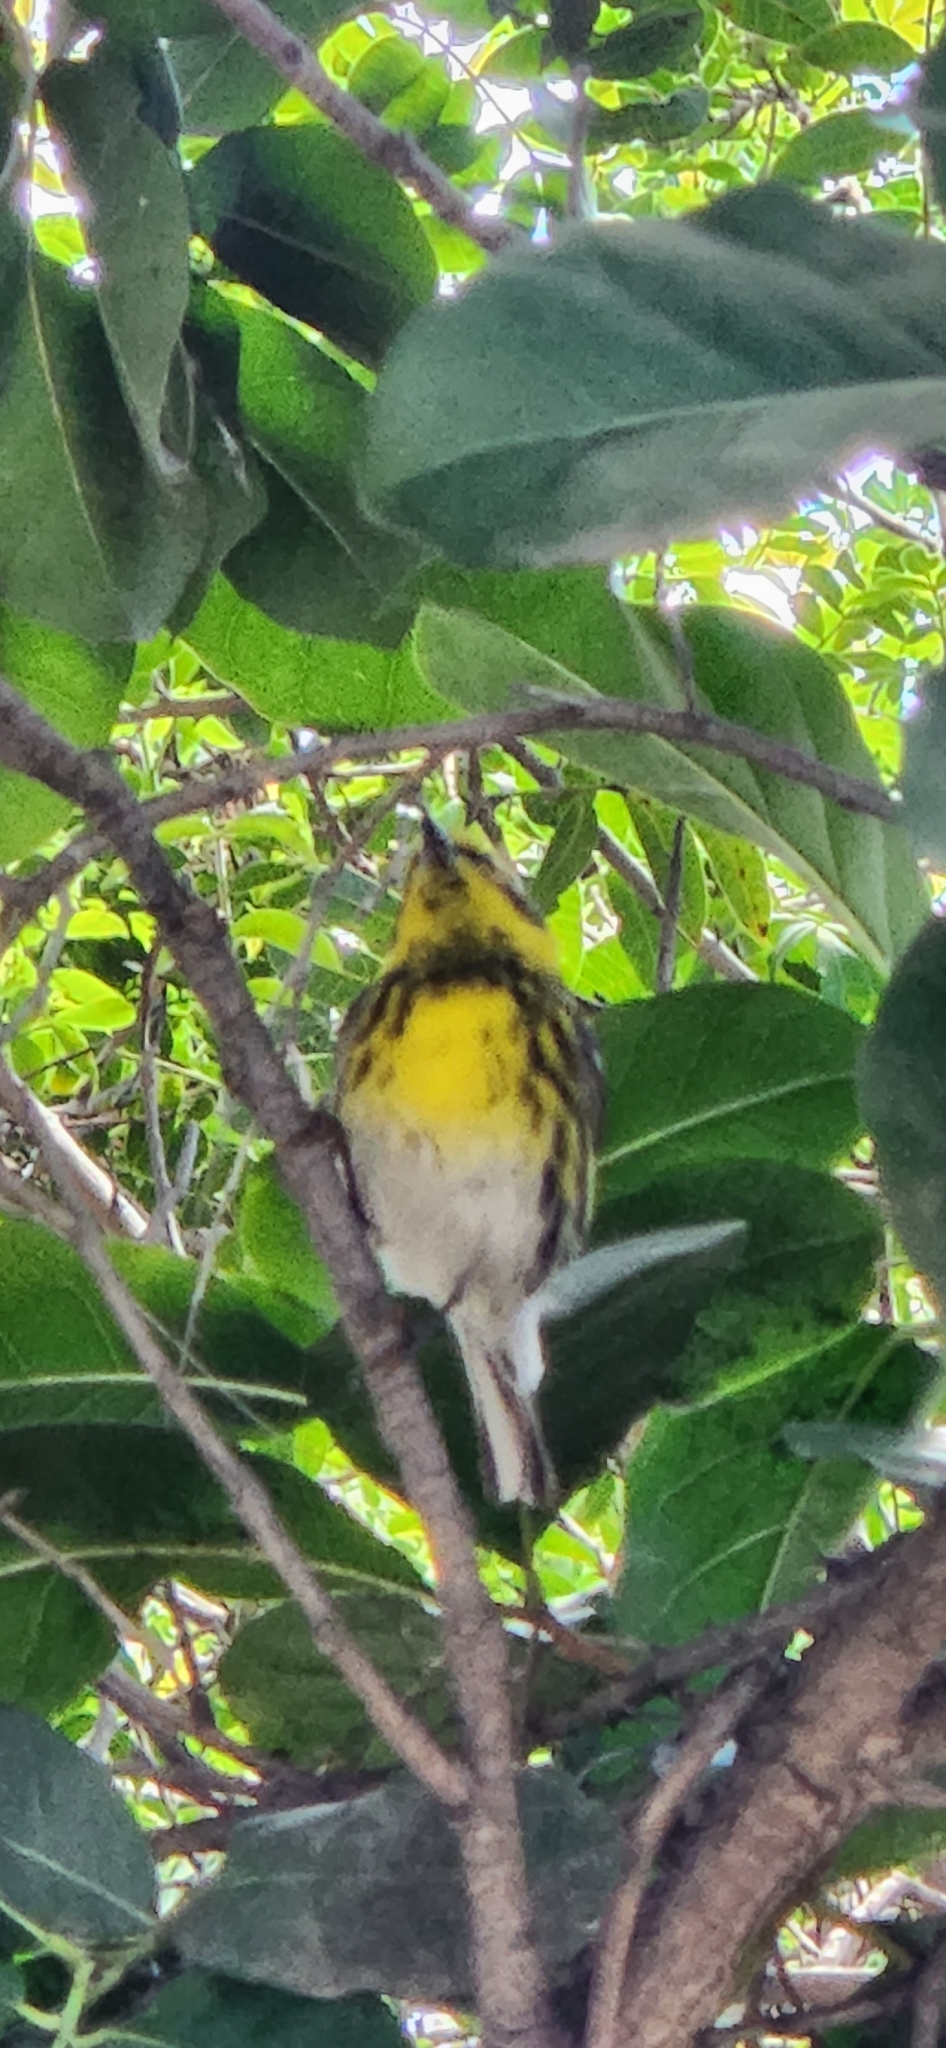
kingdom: Animalia
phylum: Chordata
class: Aves
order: Passeriformes
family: Parulidae
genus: Setophaga
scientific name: Setophaga townsendi
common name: Townsend's warbler
